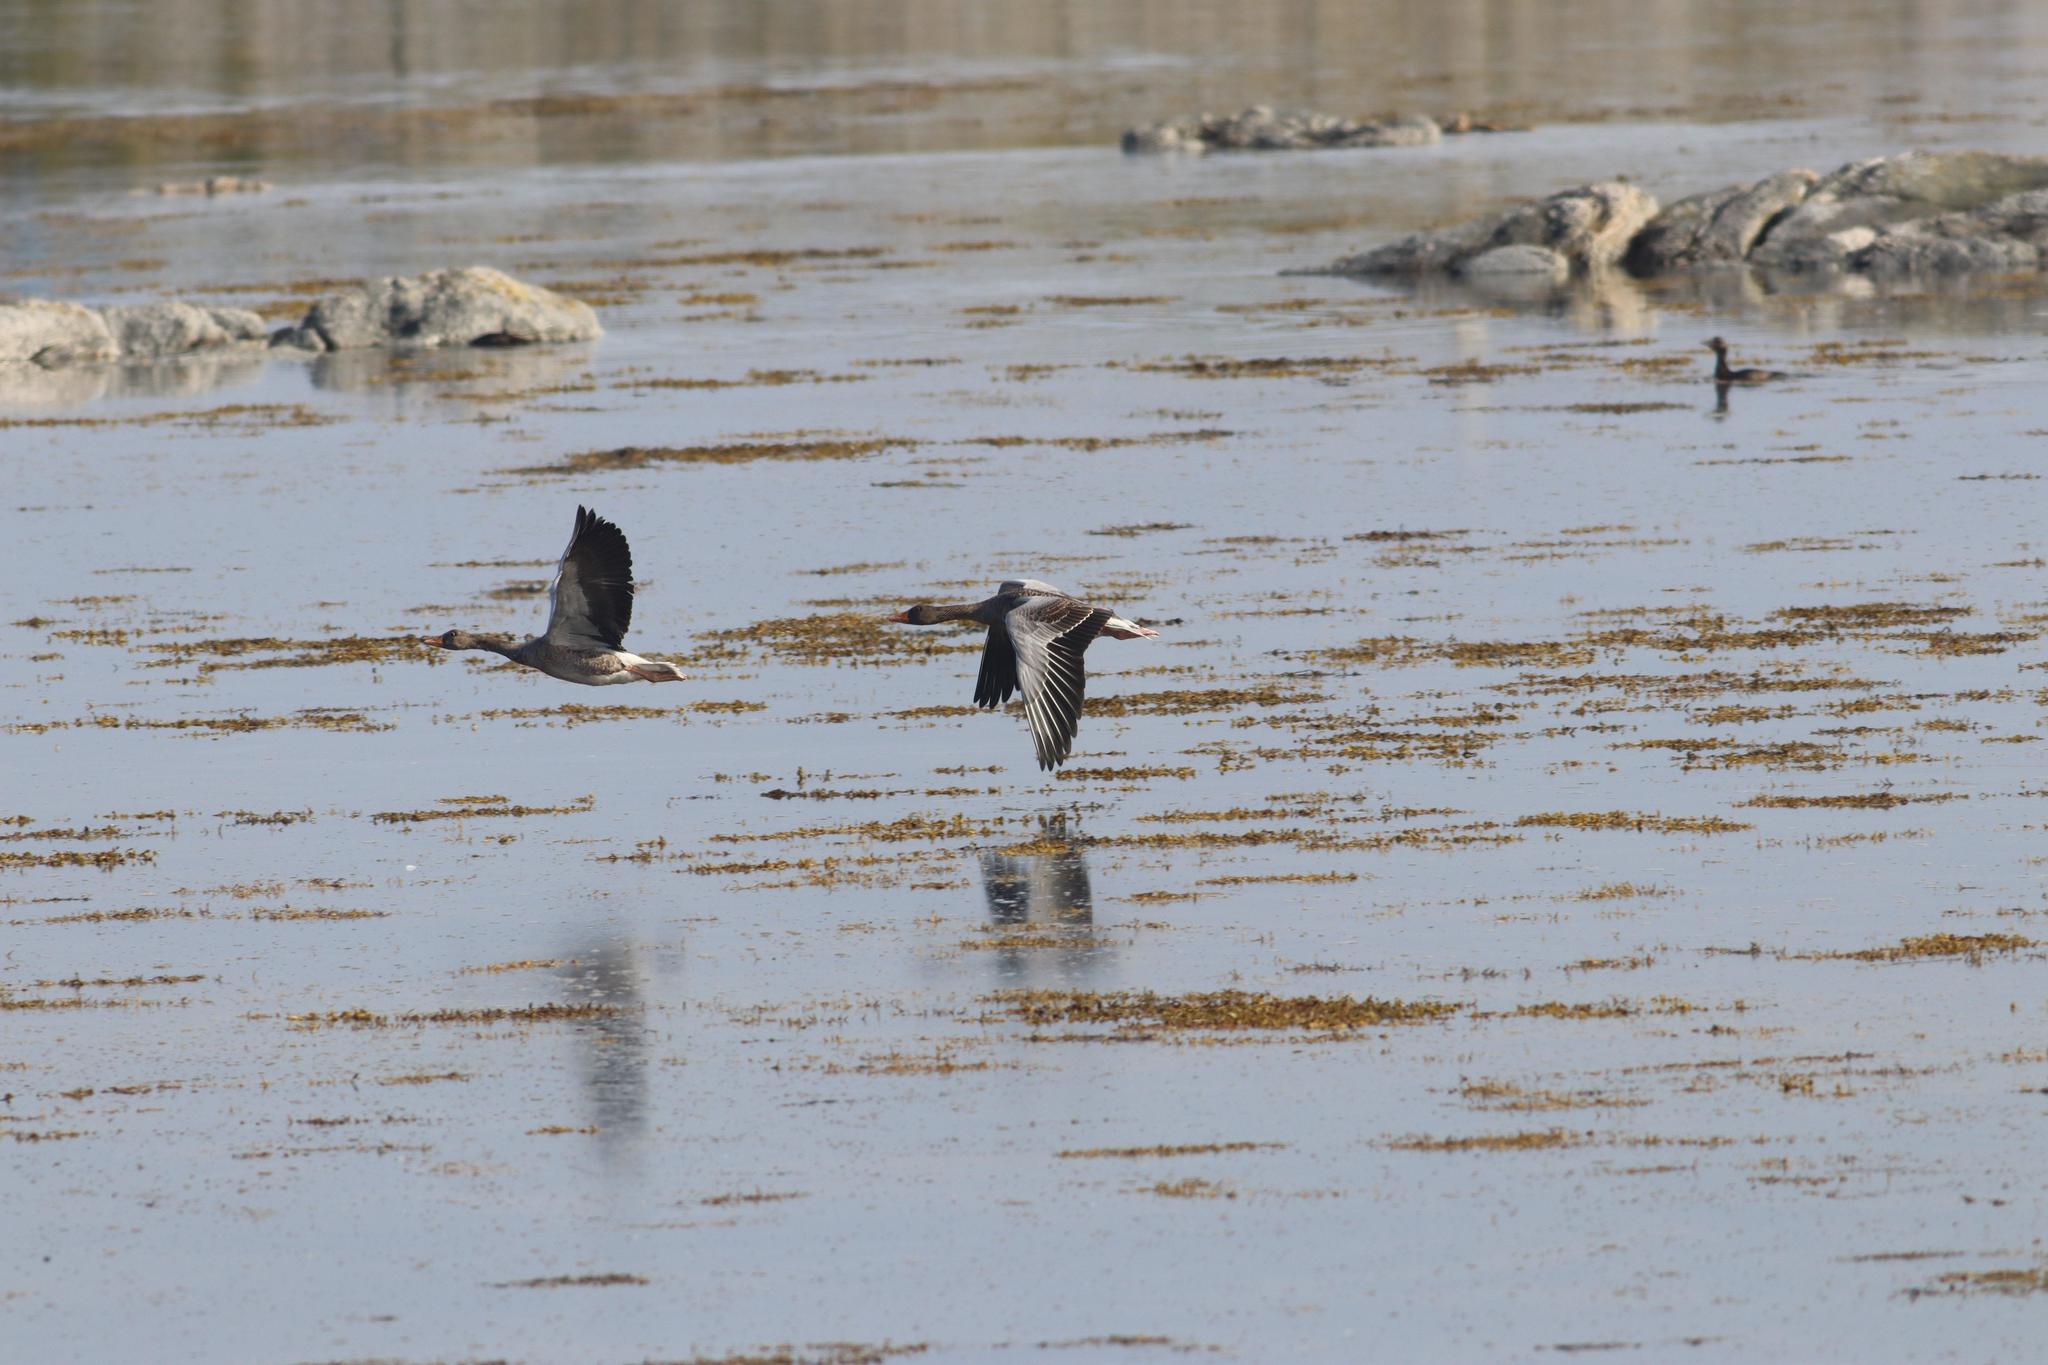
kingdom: Animalia
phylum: Chordata
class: Aves
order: Anseriformes
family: Anatidae
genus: Anser
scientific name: Anser anser
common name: Greylag goose
